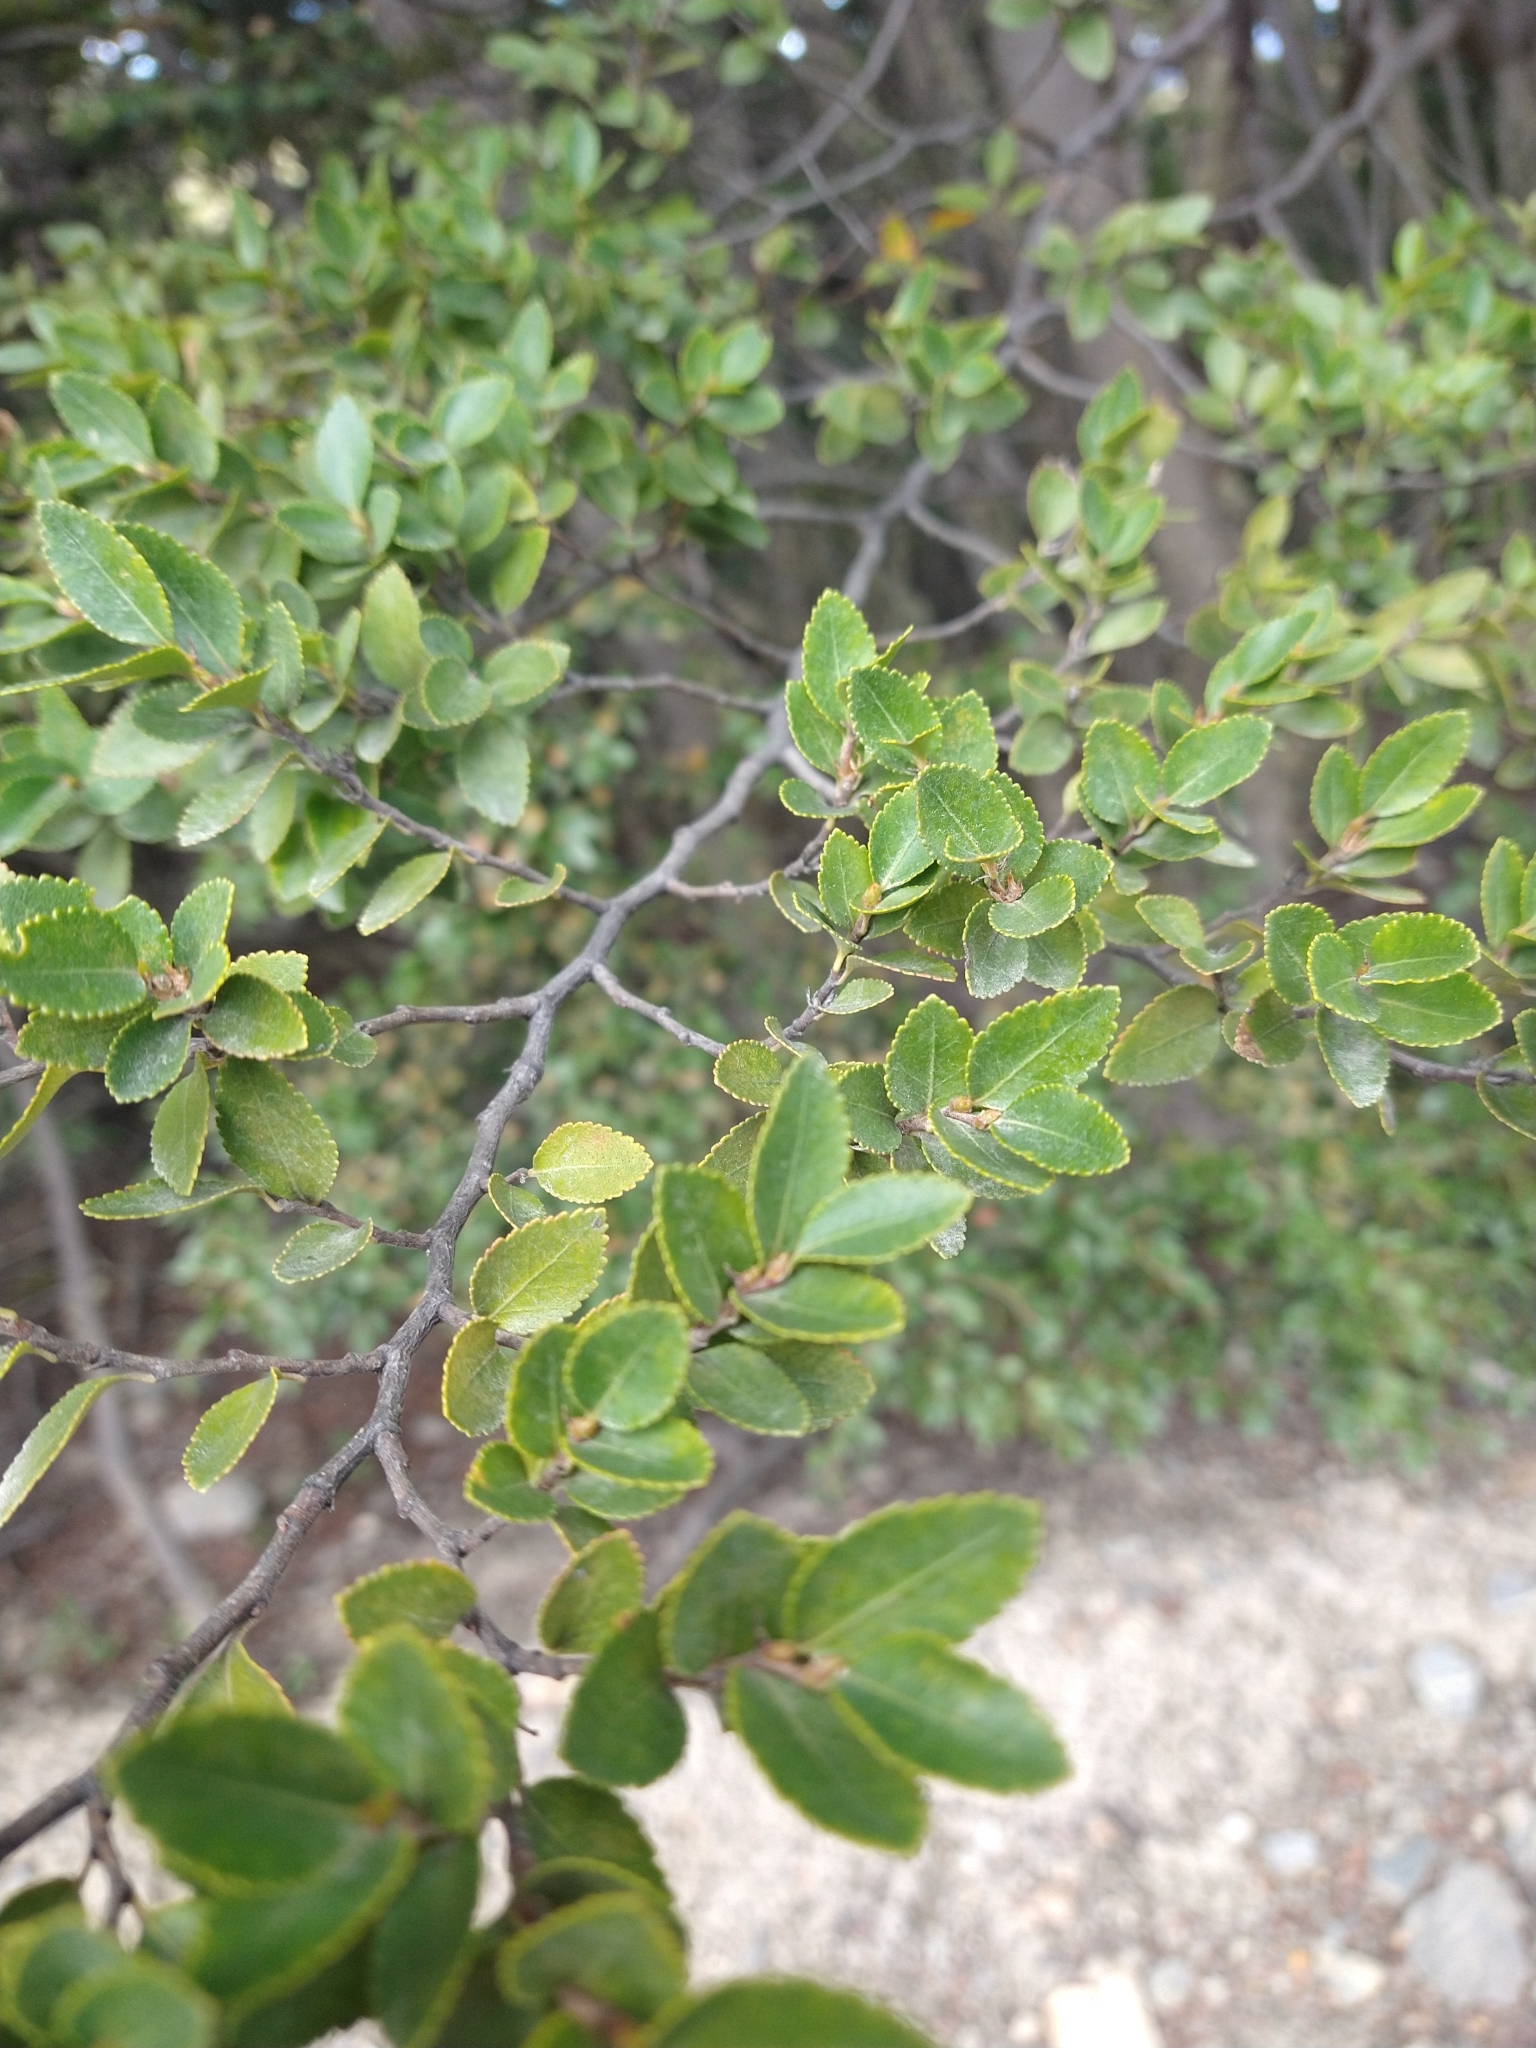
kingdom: Plantae
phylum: Tracheophyta
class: Magnoliopsida
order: Fagales
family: Nothofagaceae
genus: Nothofagus
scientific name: Nothofagus betuloides
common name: Magellan's beech
